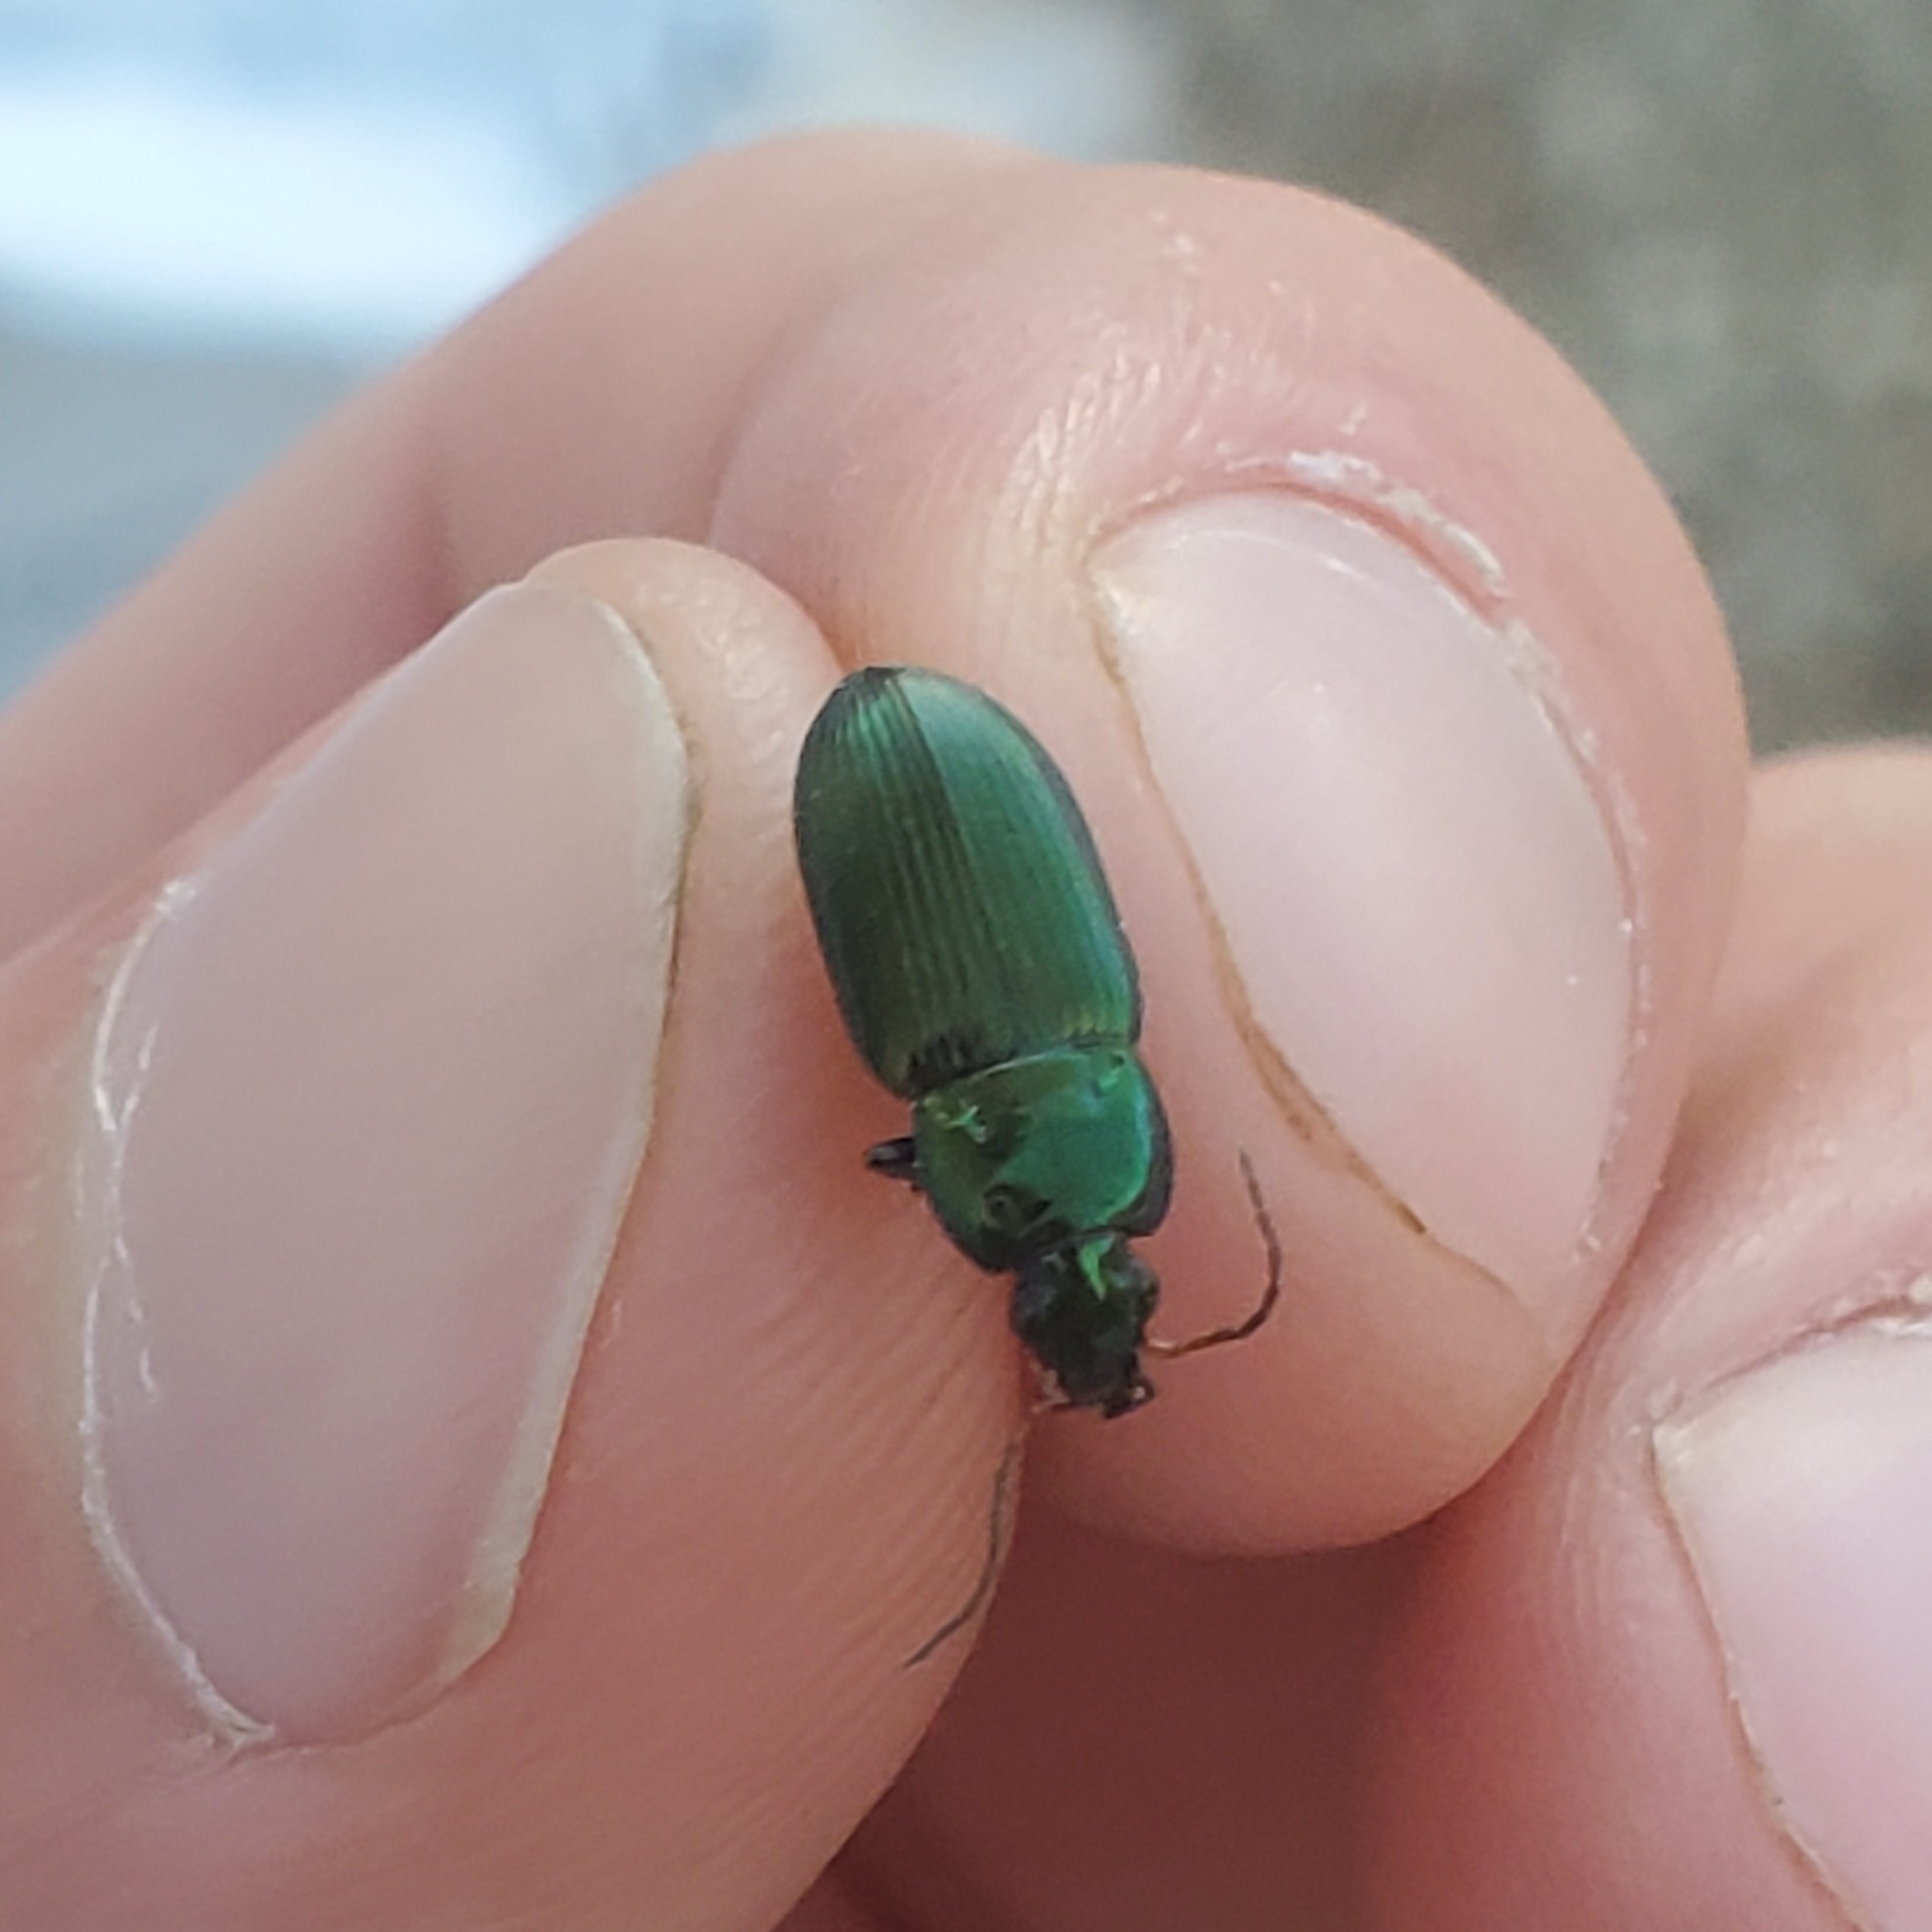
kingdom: Animalia
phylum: Arthropoda
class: Insecta
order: Coleoptera
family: Carabidae
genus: Poecilus
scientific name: Poecilus chalcites
